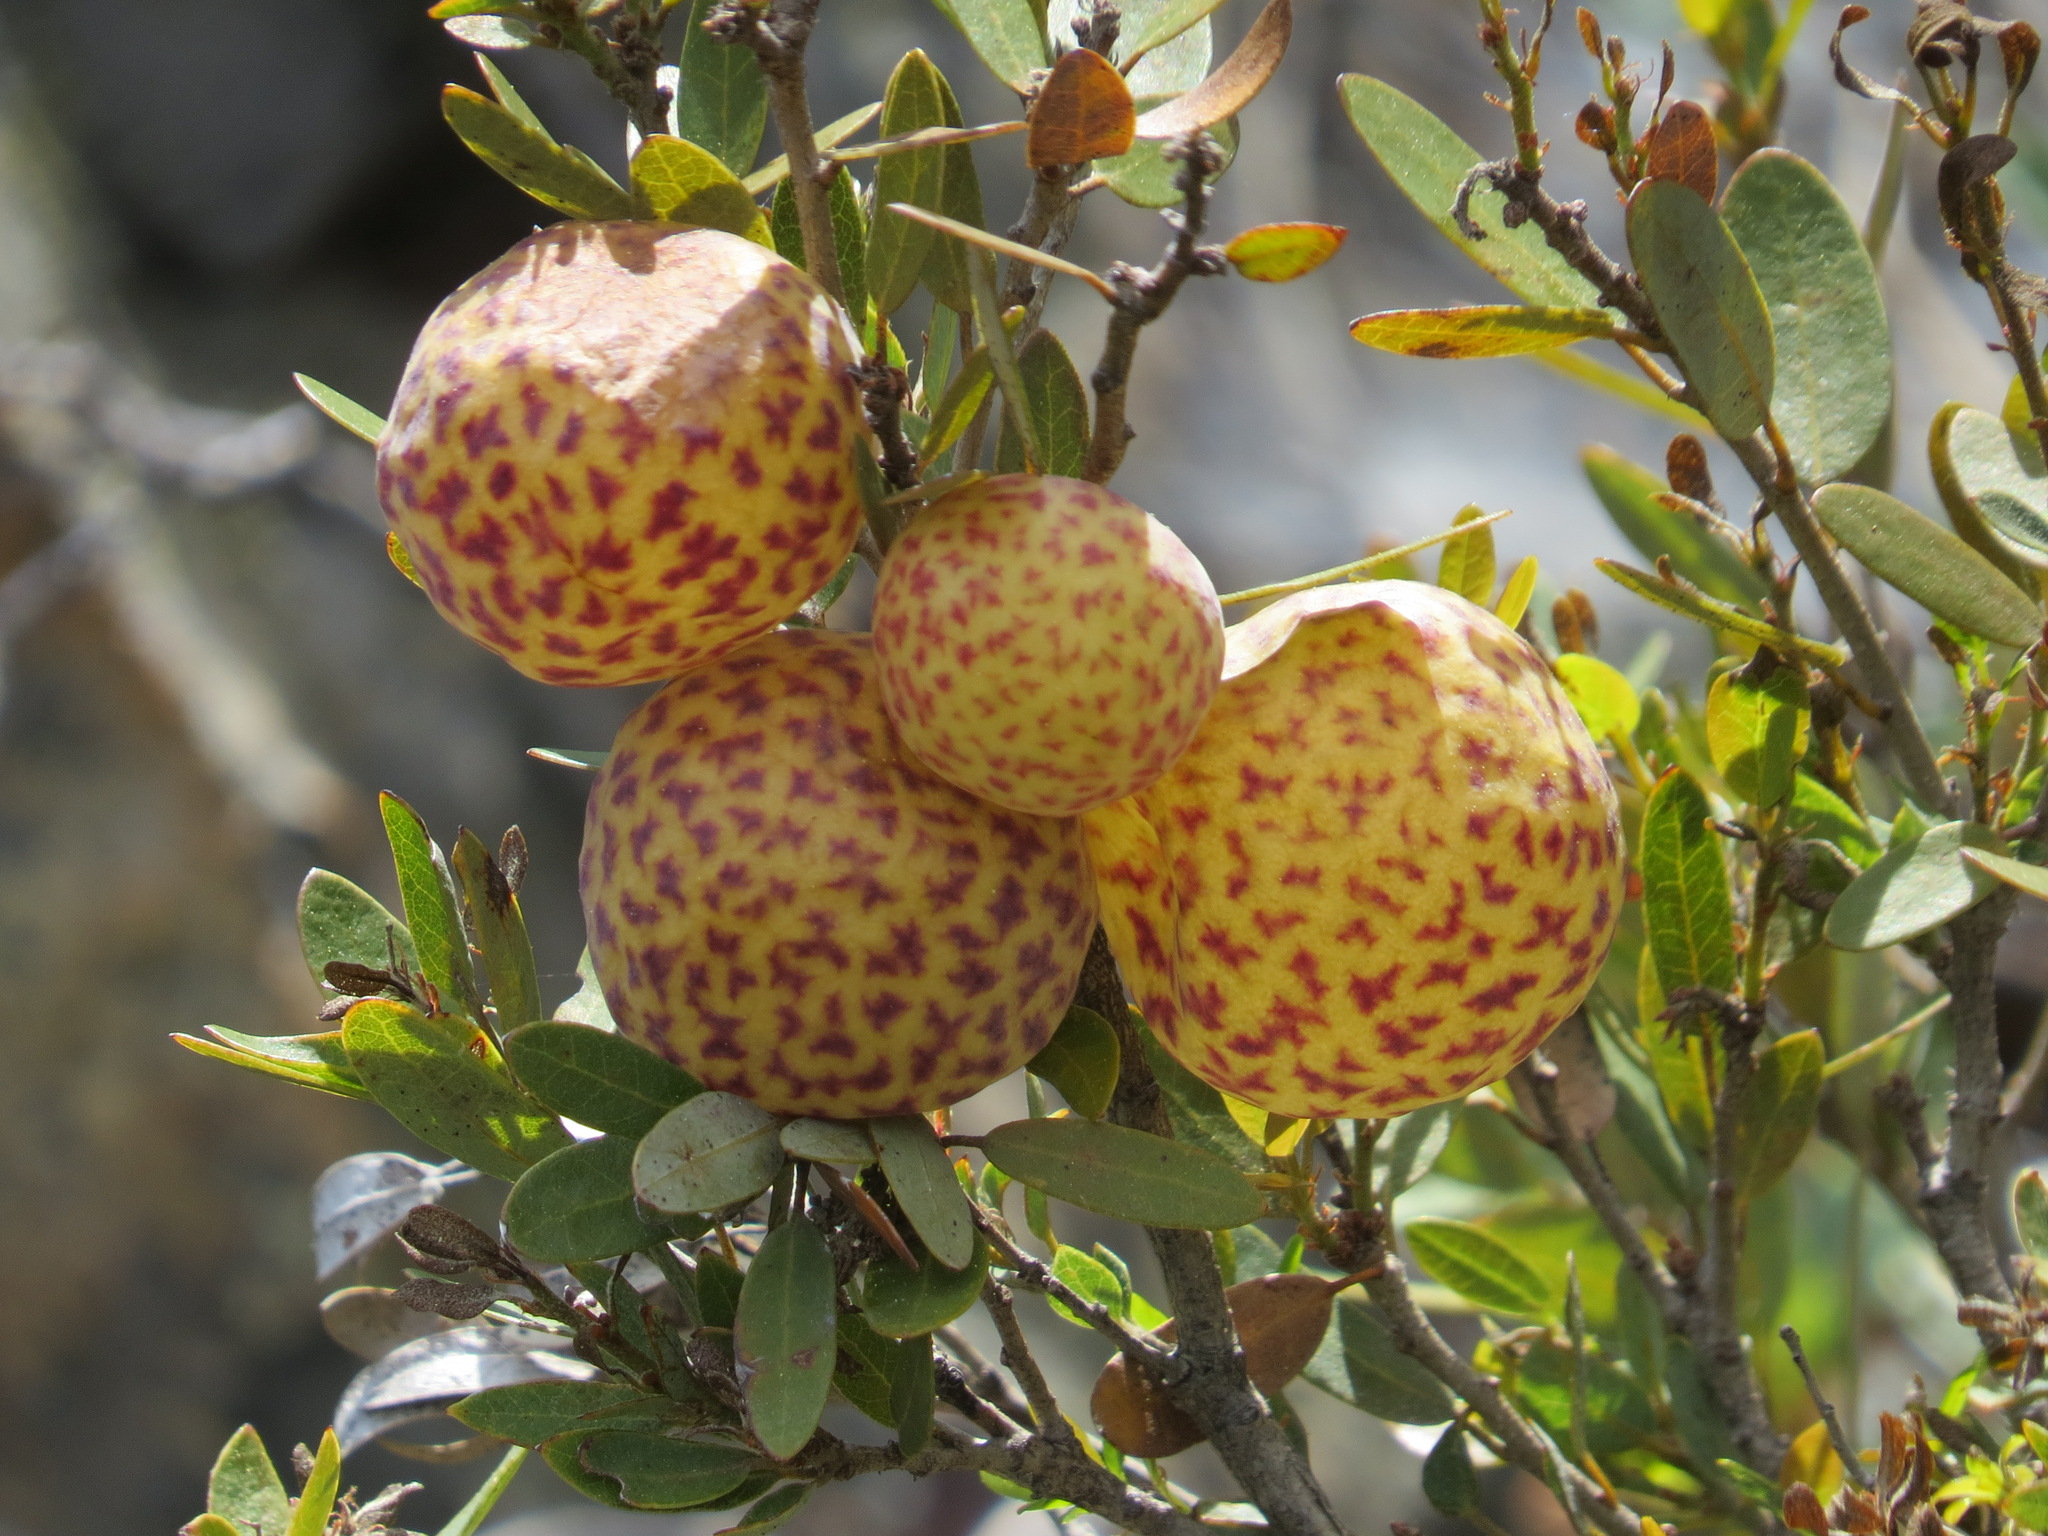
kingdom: Animalia
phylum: Arthropoda
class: Insecta
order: Hymenoptera
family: Cynipidae
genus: Andricus
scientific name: Andricus
